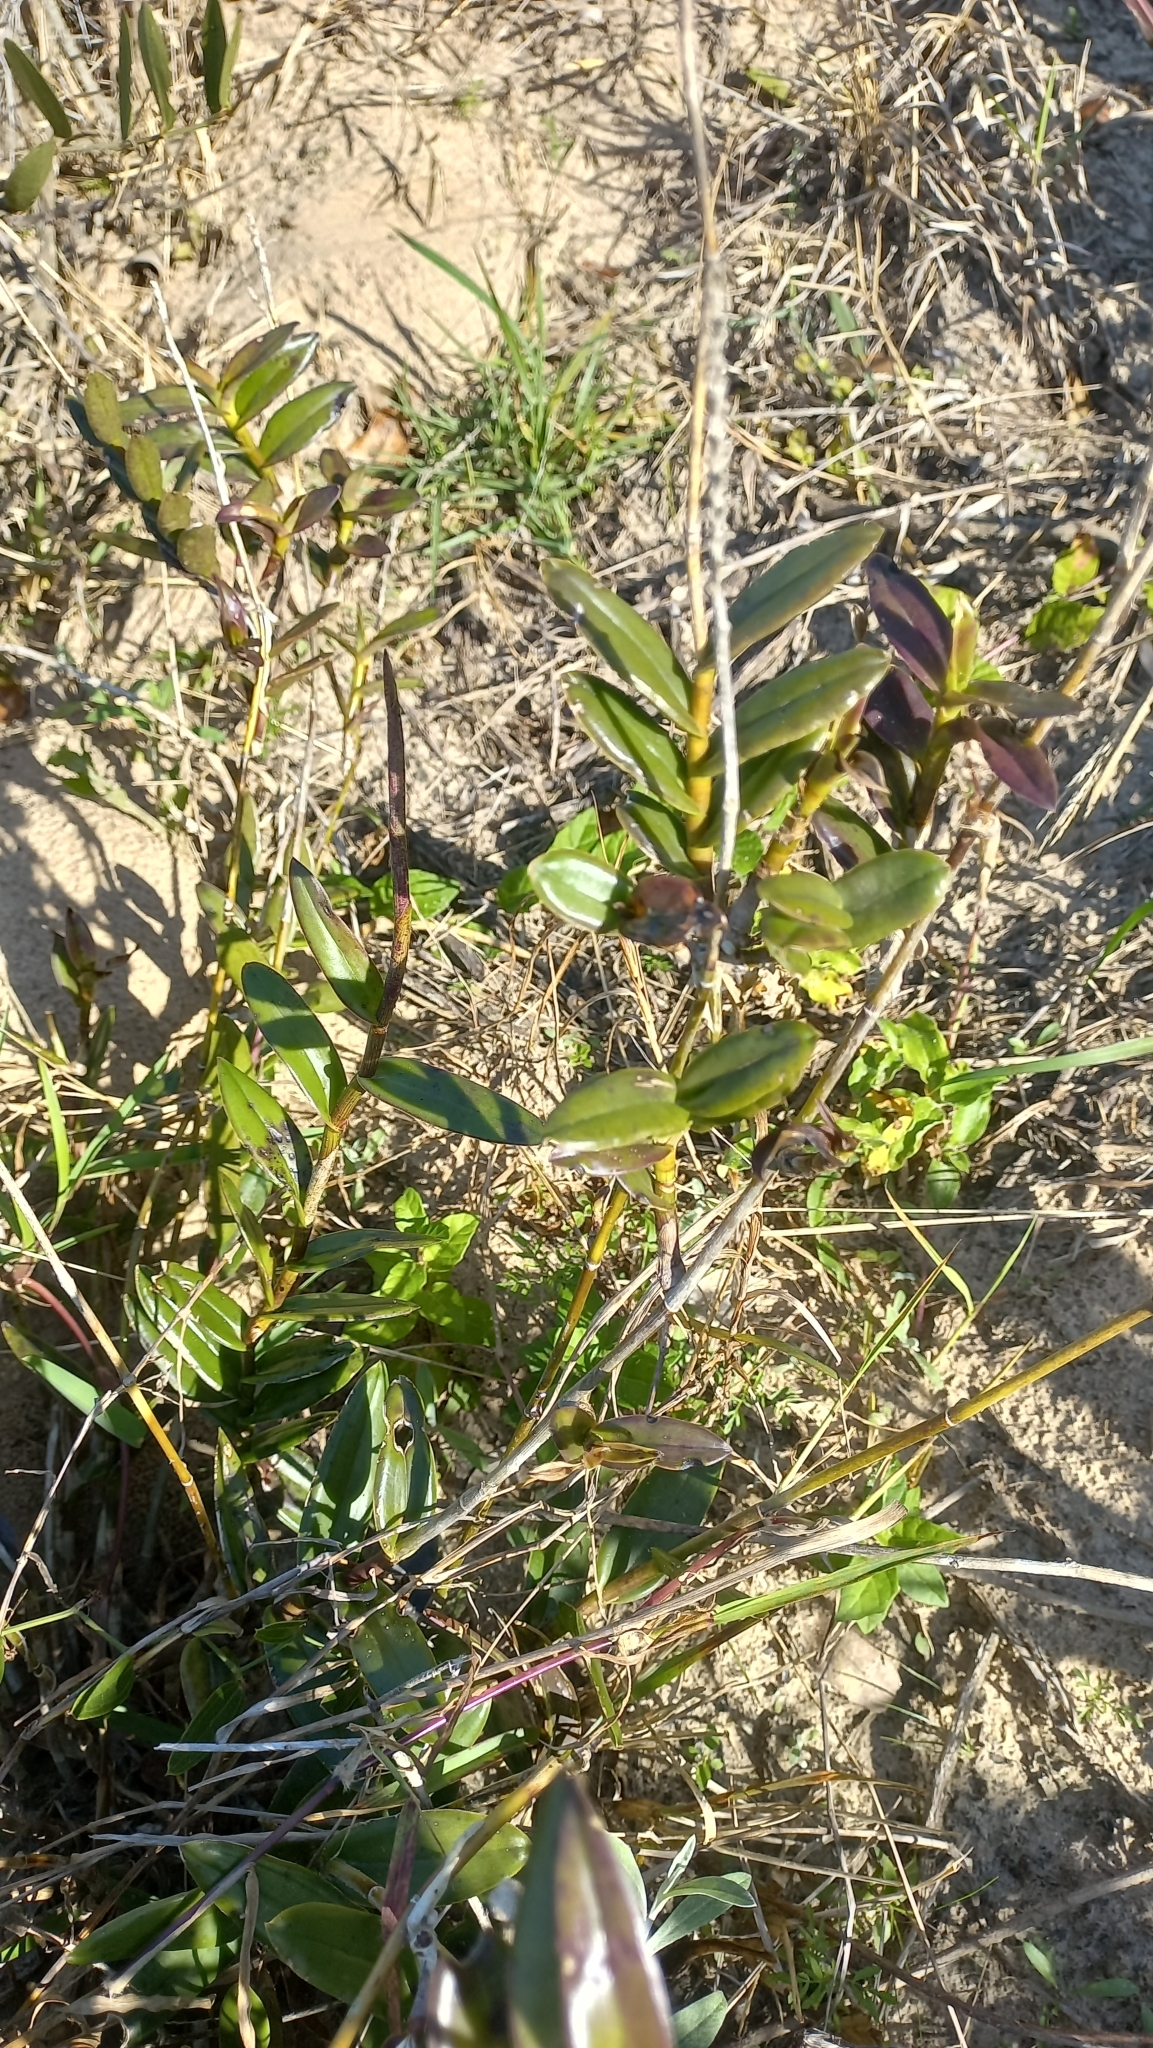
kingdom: Plantae
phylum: Tracheophyta
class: Liliopsida
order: Asparagales
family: Orchidaceae
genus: Epidendrum
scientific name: Epidendrum fulgens
